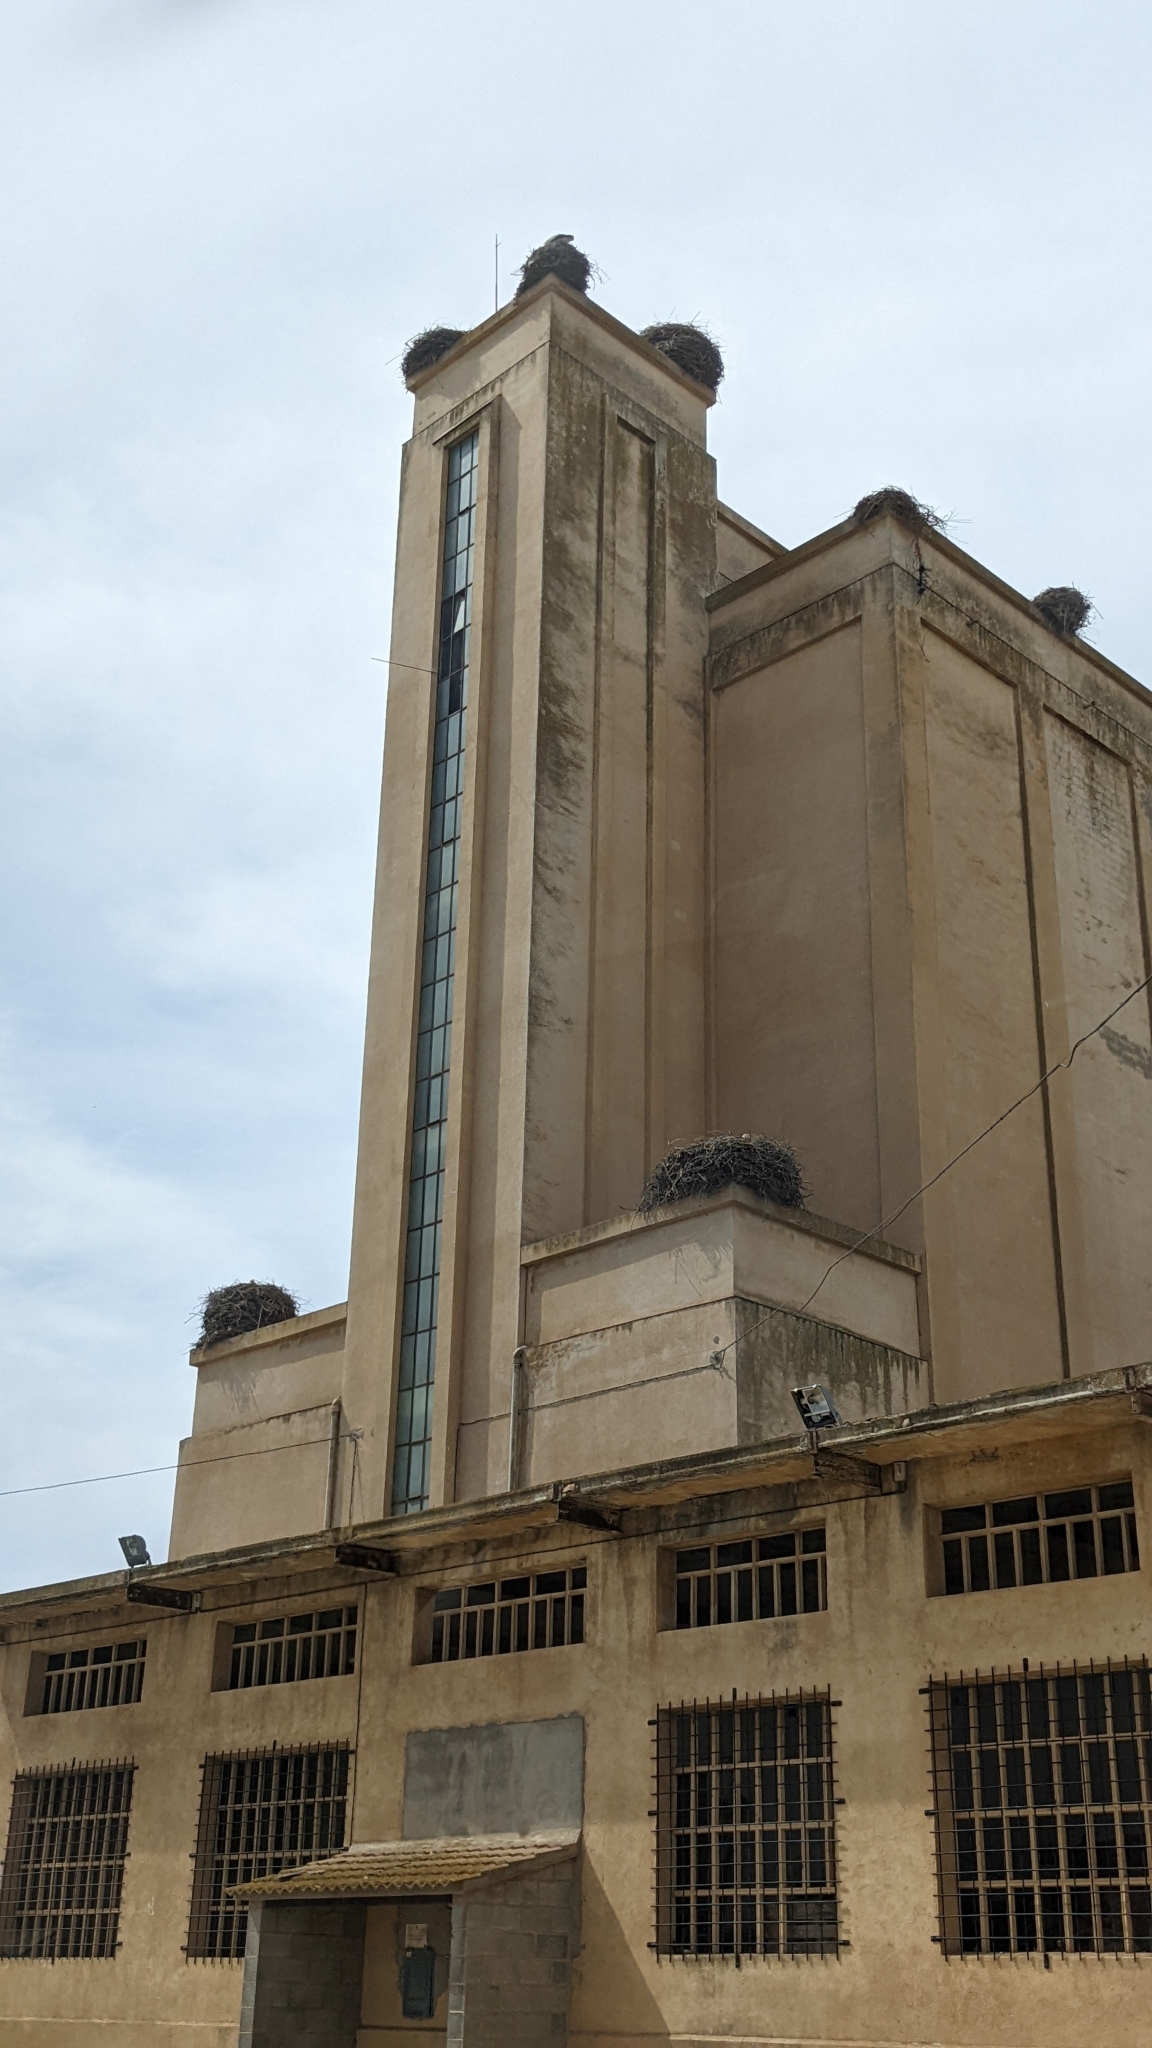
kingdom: Animalia
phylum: Chordata
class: Aves
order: Ciconiiformes
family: Ciconiidae
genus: Ciconia
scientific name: Ciconia ciconia
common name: White stork
